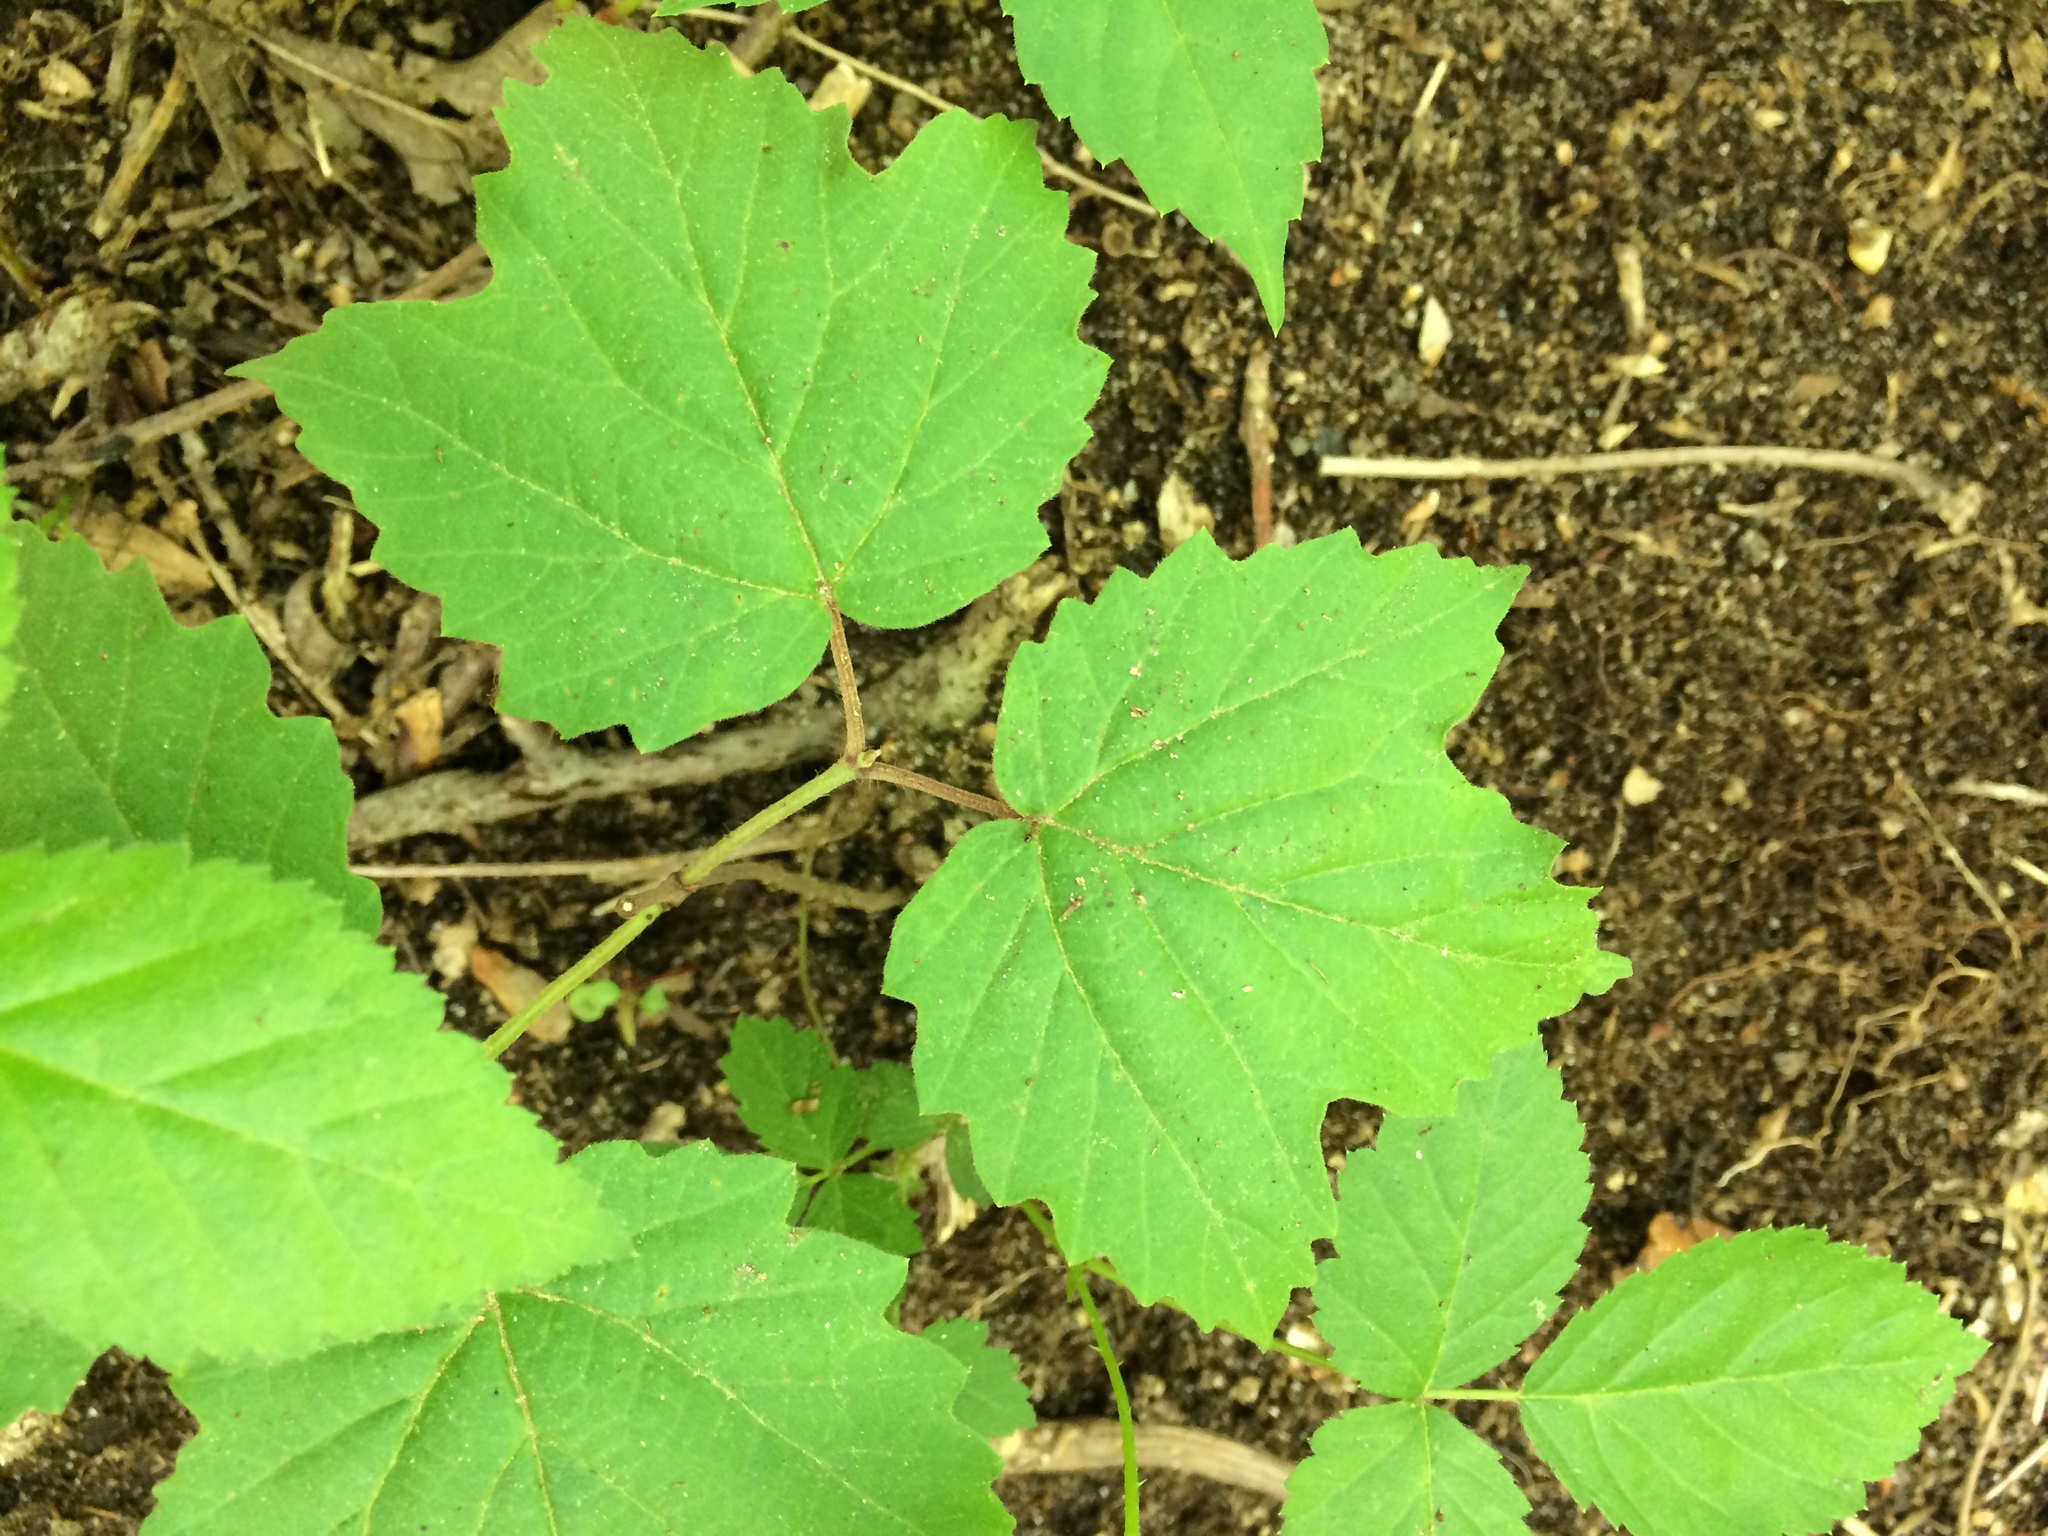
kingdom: Plantae
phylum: Tracheophyta
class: Magnoliopsida
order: Dipsacales
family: Viburnaceae
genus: Viburnum
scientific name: Viburnum acerifolium
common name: Dockmackie
